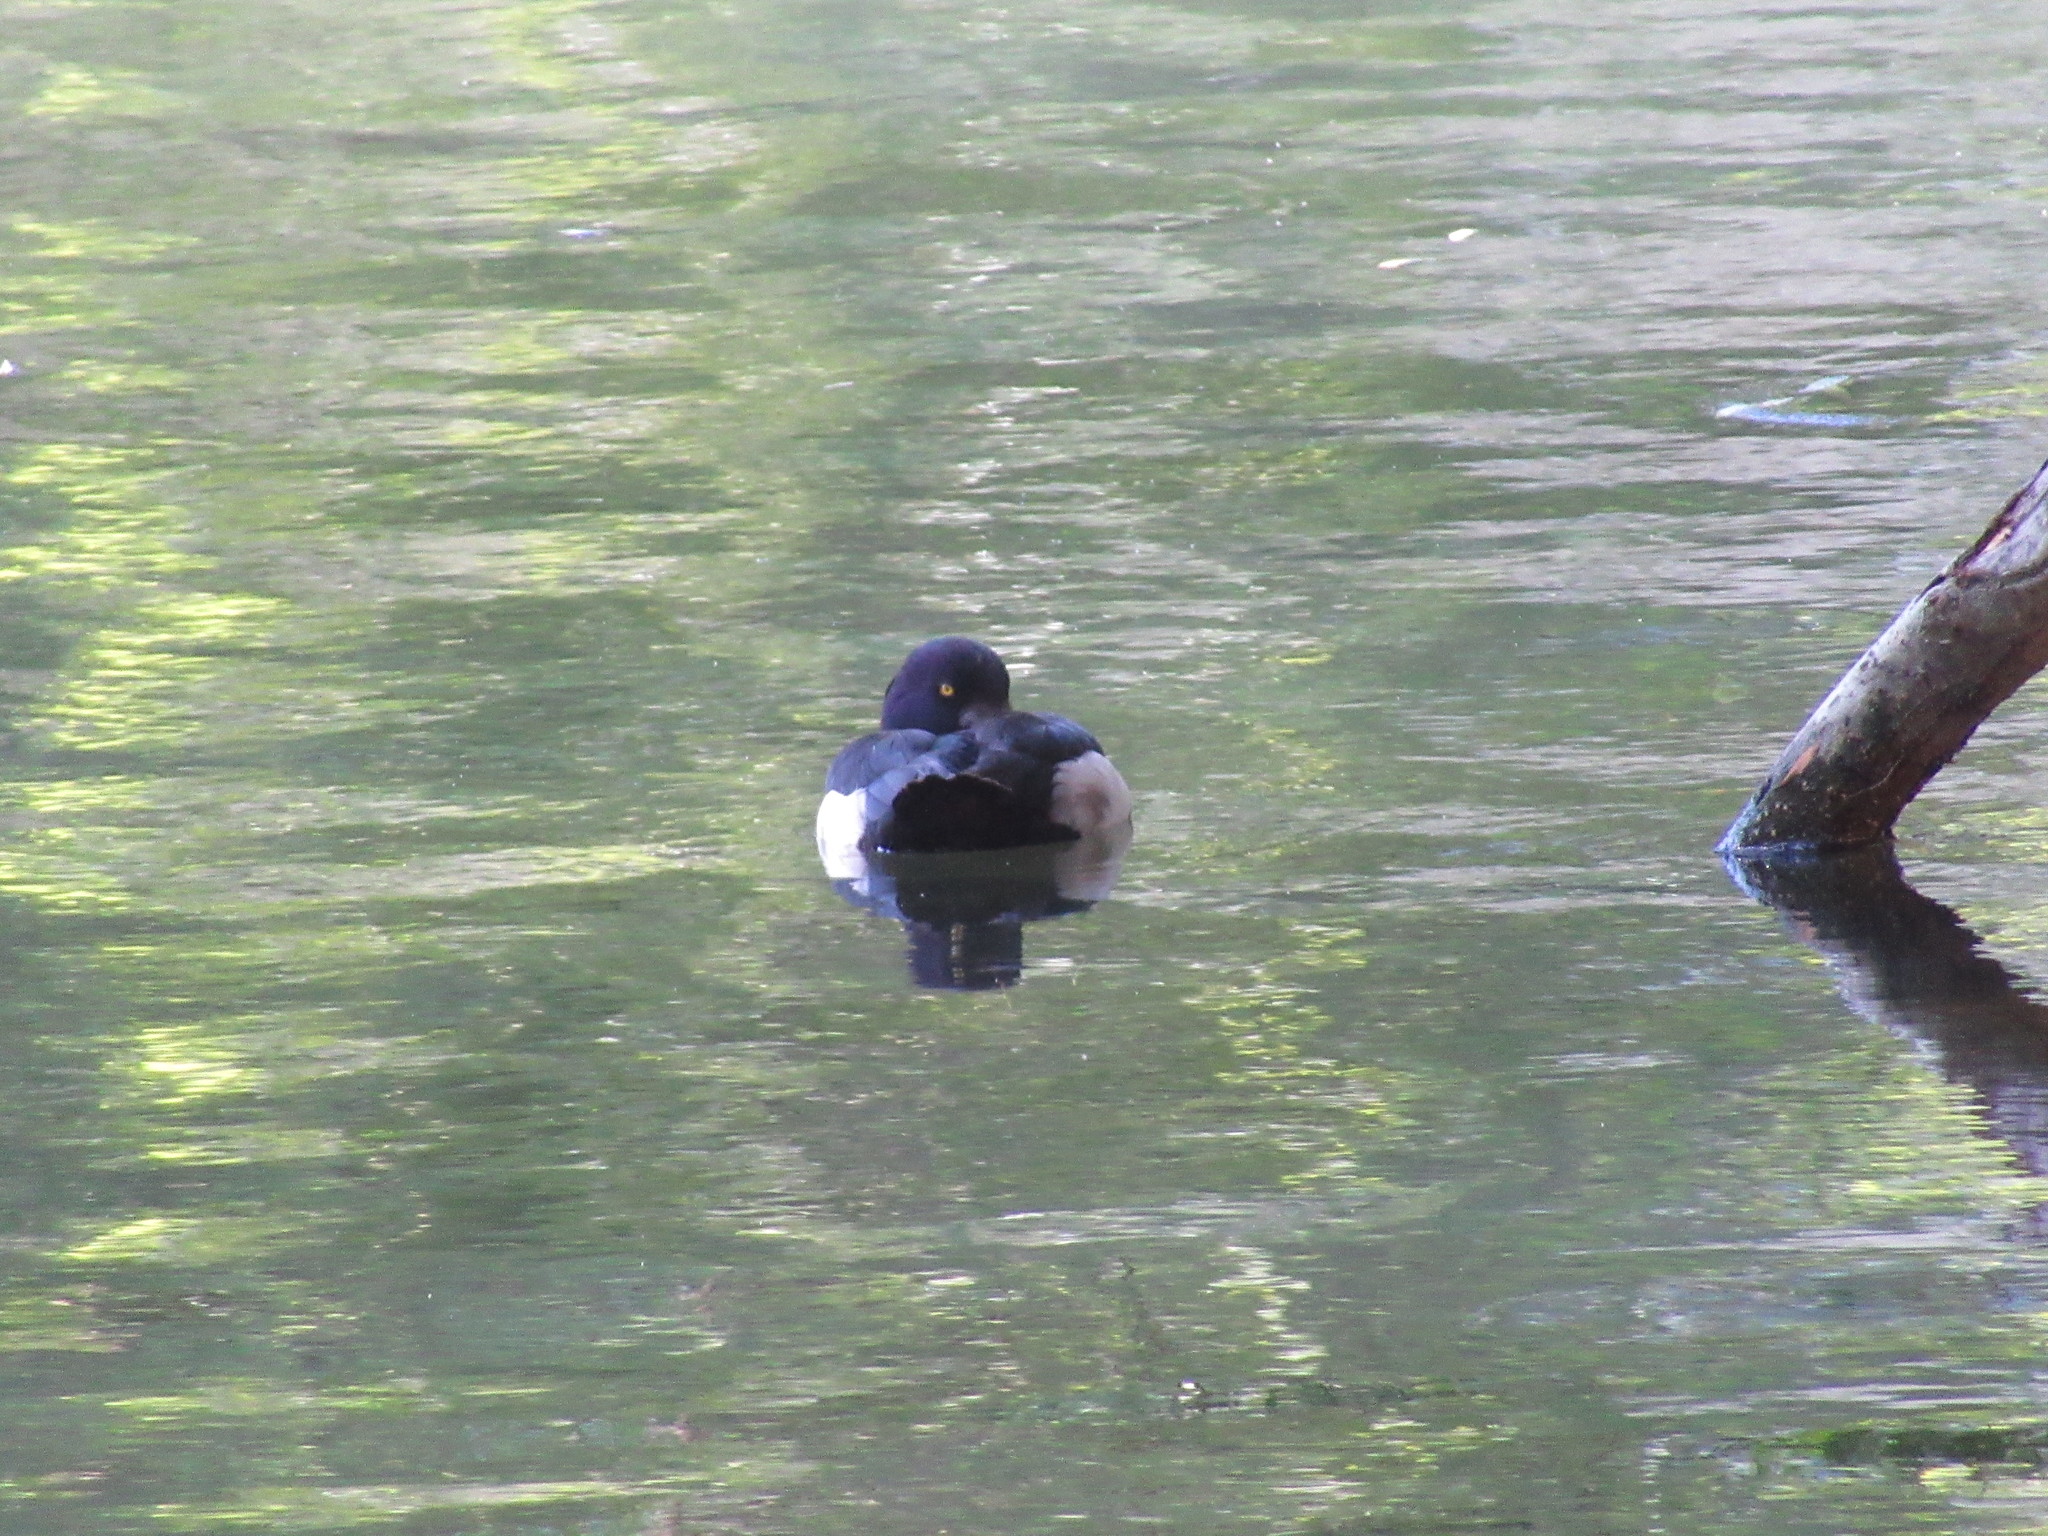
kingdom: Animalia
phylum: Chordata
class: Aves
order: Anseriformes
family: Anatidae
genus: Aythya
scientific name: Aythya fuligula
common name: Tufted duck
